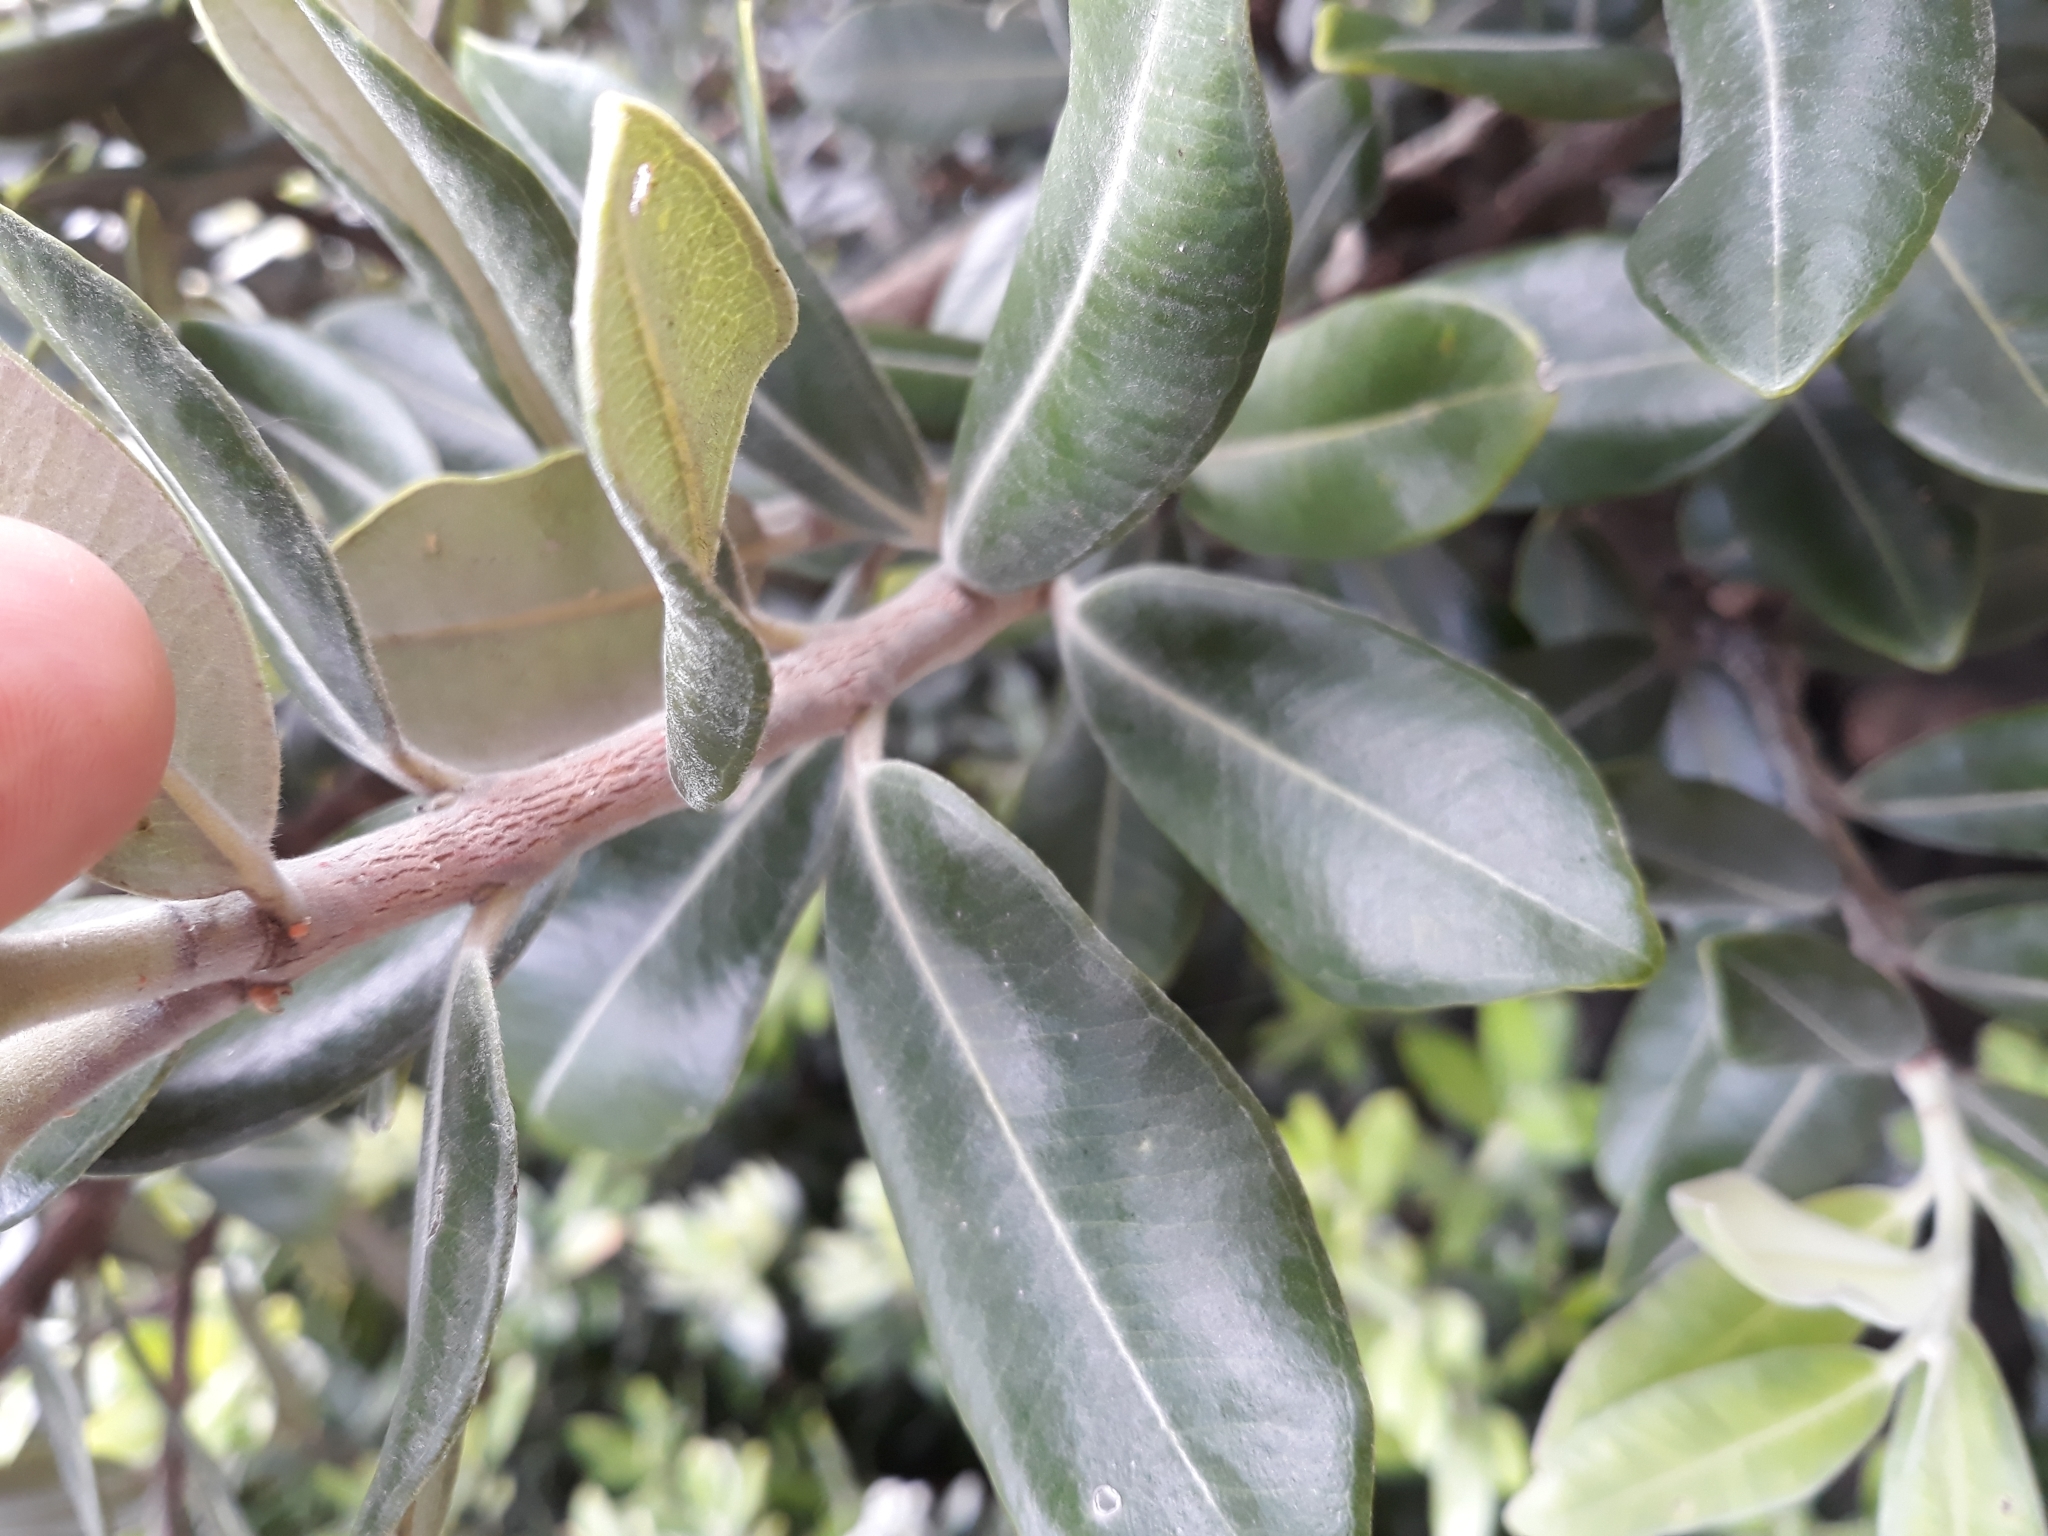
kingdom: Plantae
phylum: Tracheophyta
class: Magnoliopsida
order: Myrtales
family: Myrtaceae
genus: Metrosideros
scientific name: Metrosideros excelsa
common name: New zealand christmastree
